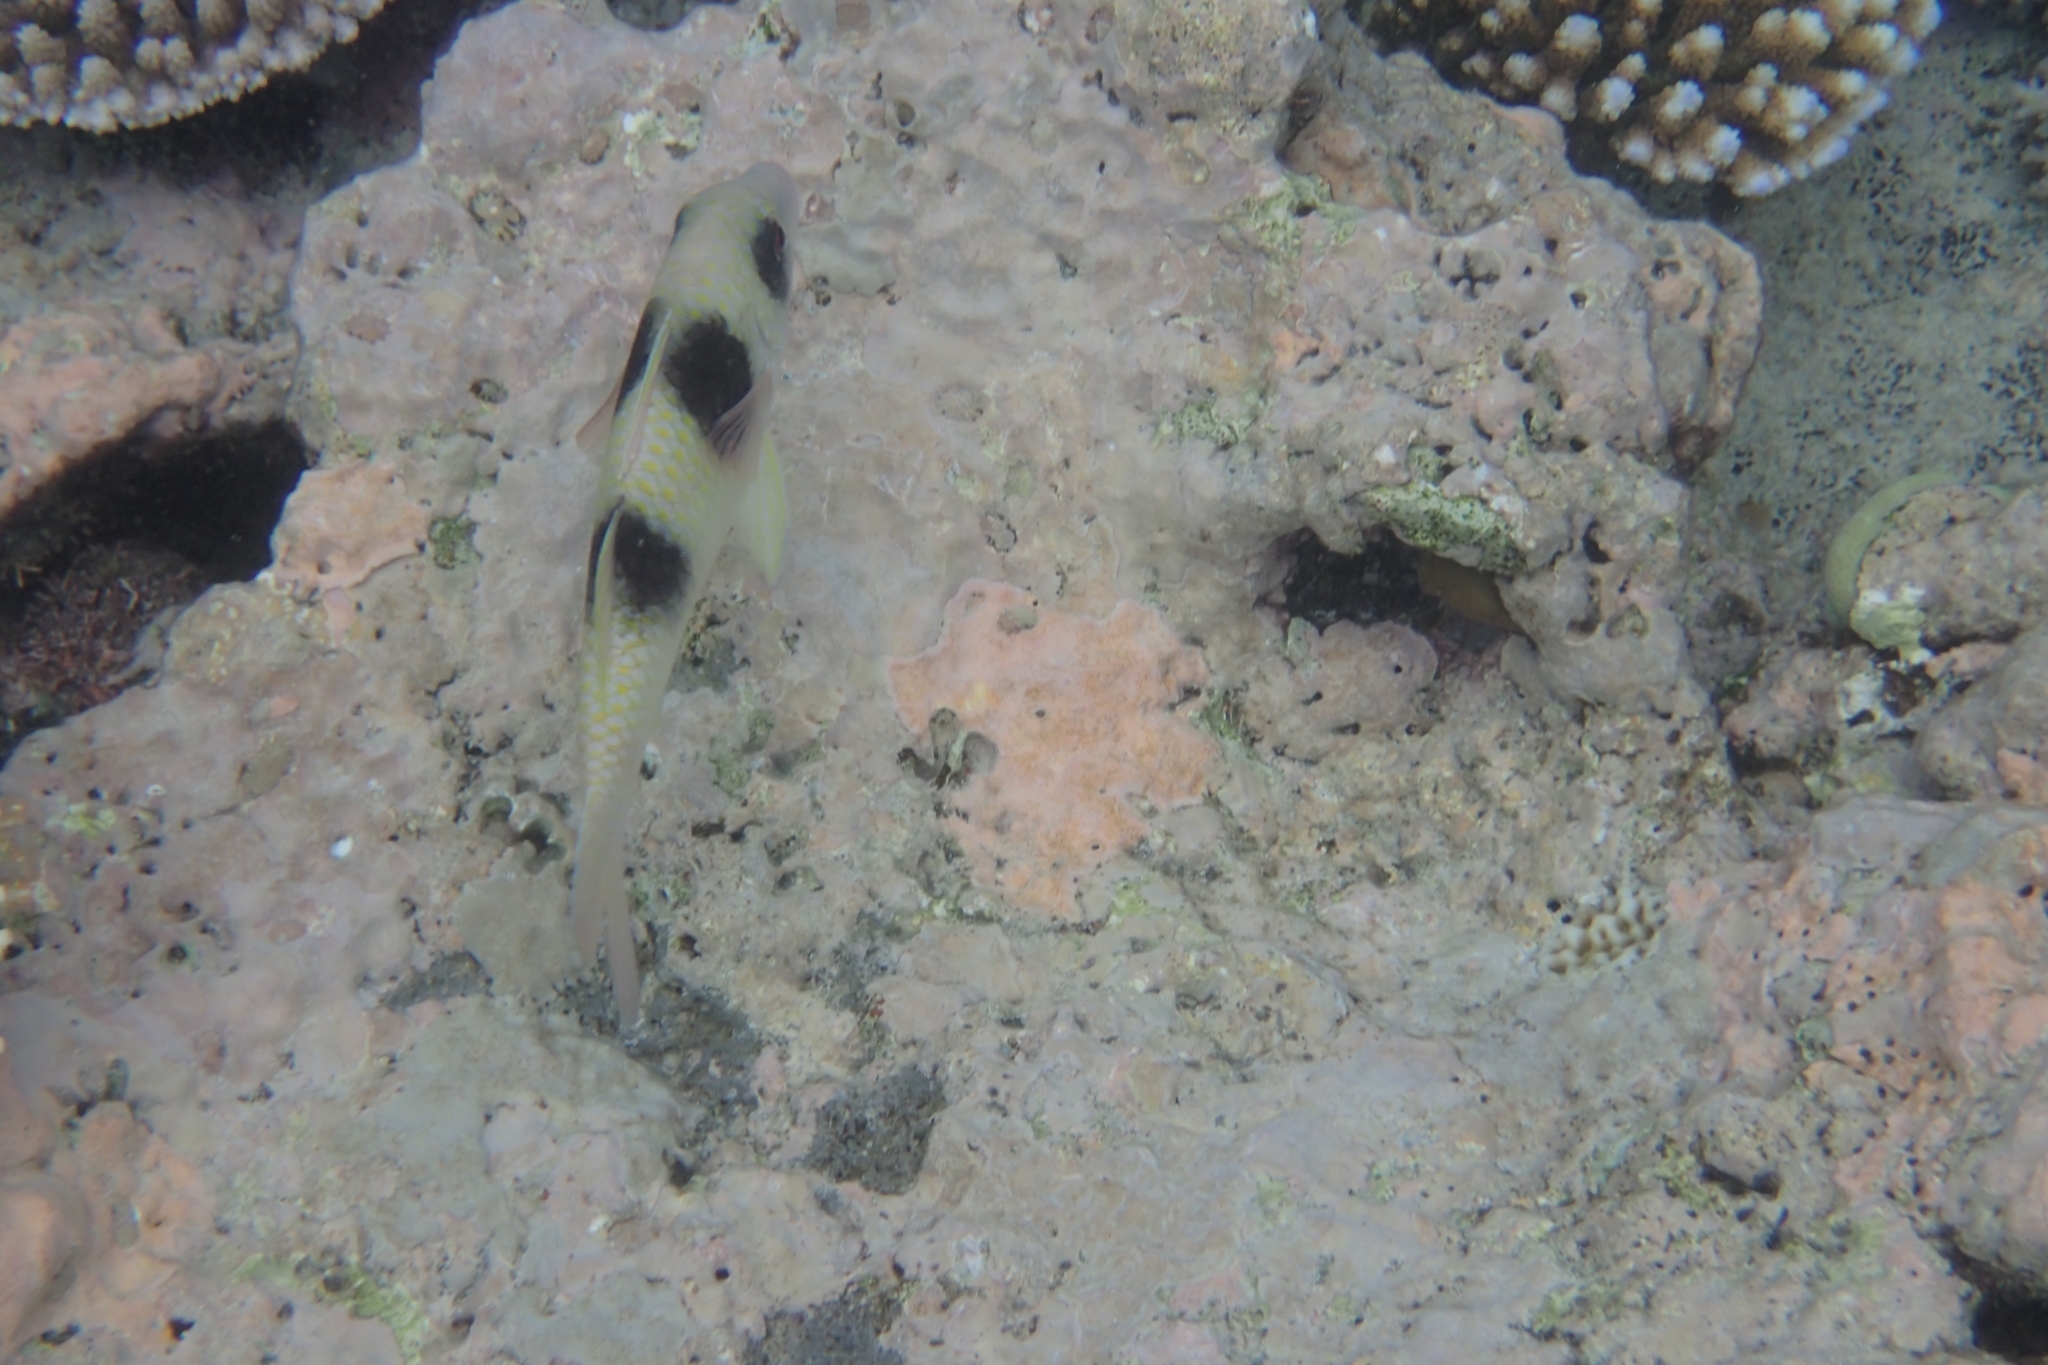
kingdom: Animalia
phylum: Chordata
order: Perciformes
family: Mullidae
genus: Parupeneus
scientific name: Parupeneus crassilabris
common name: Doublebar goatfish
